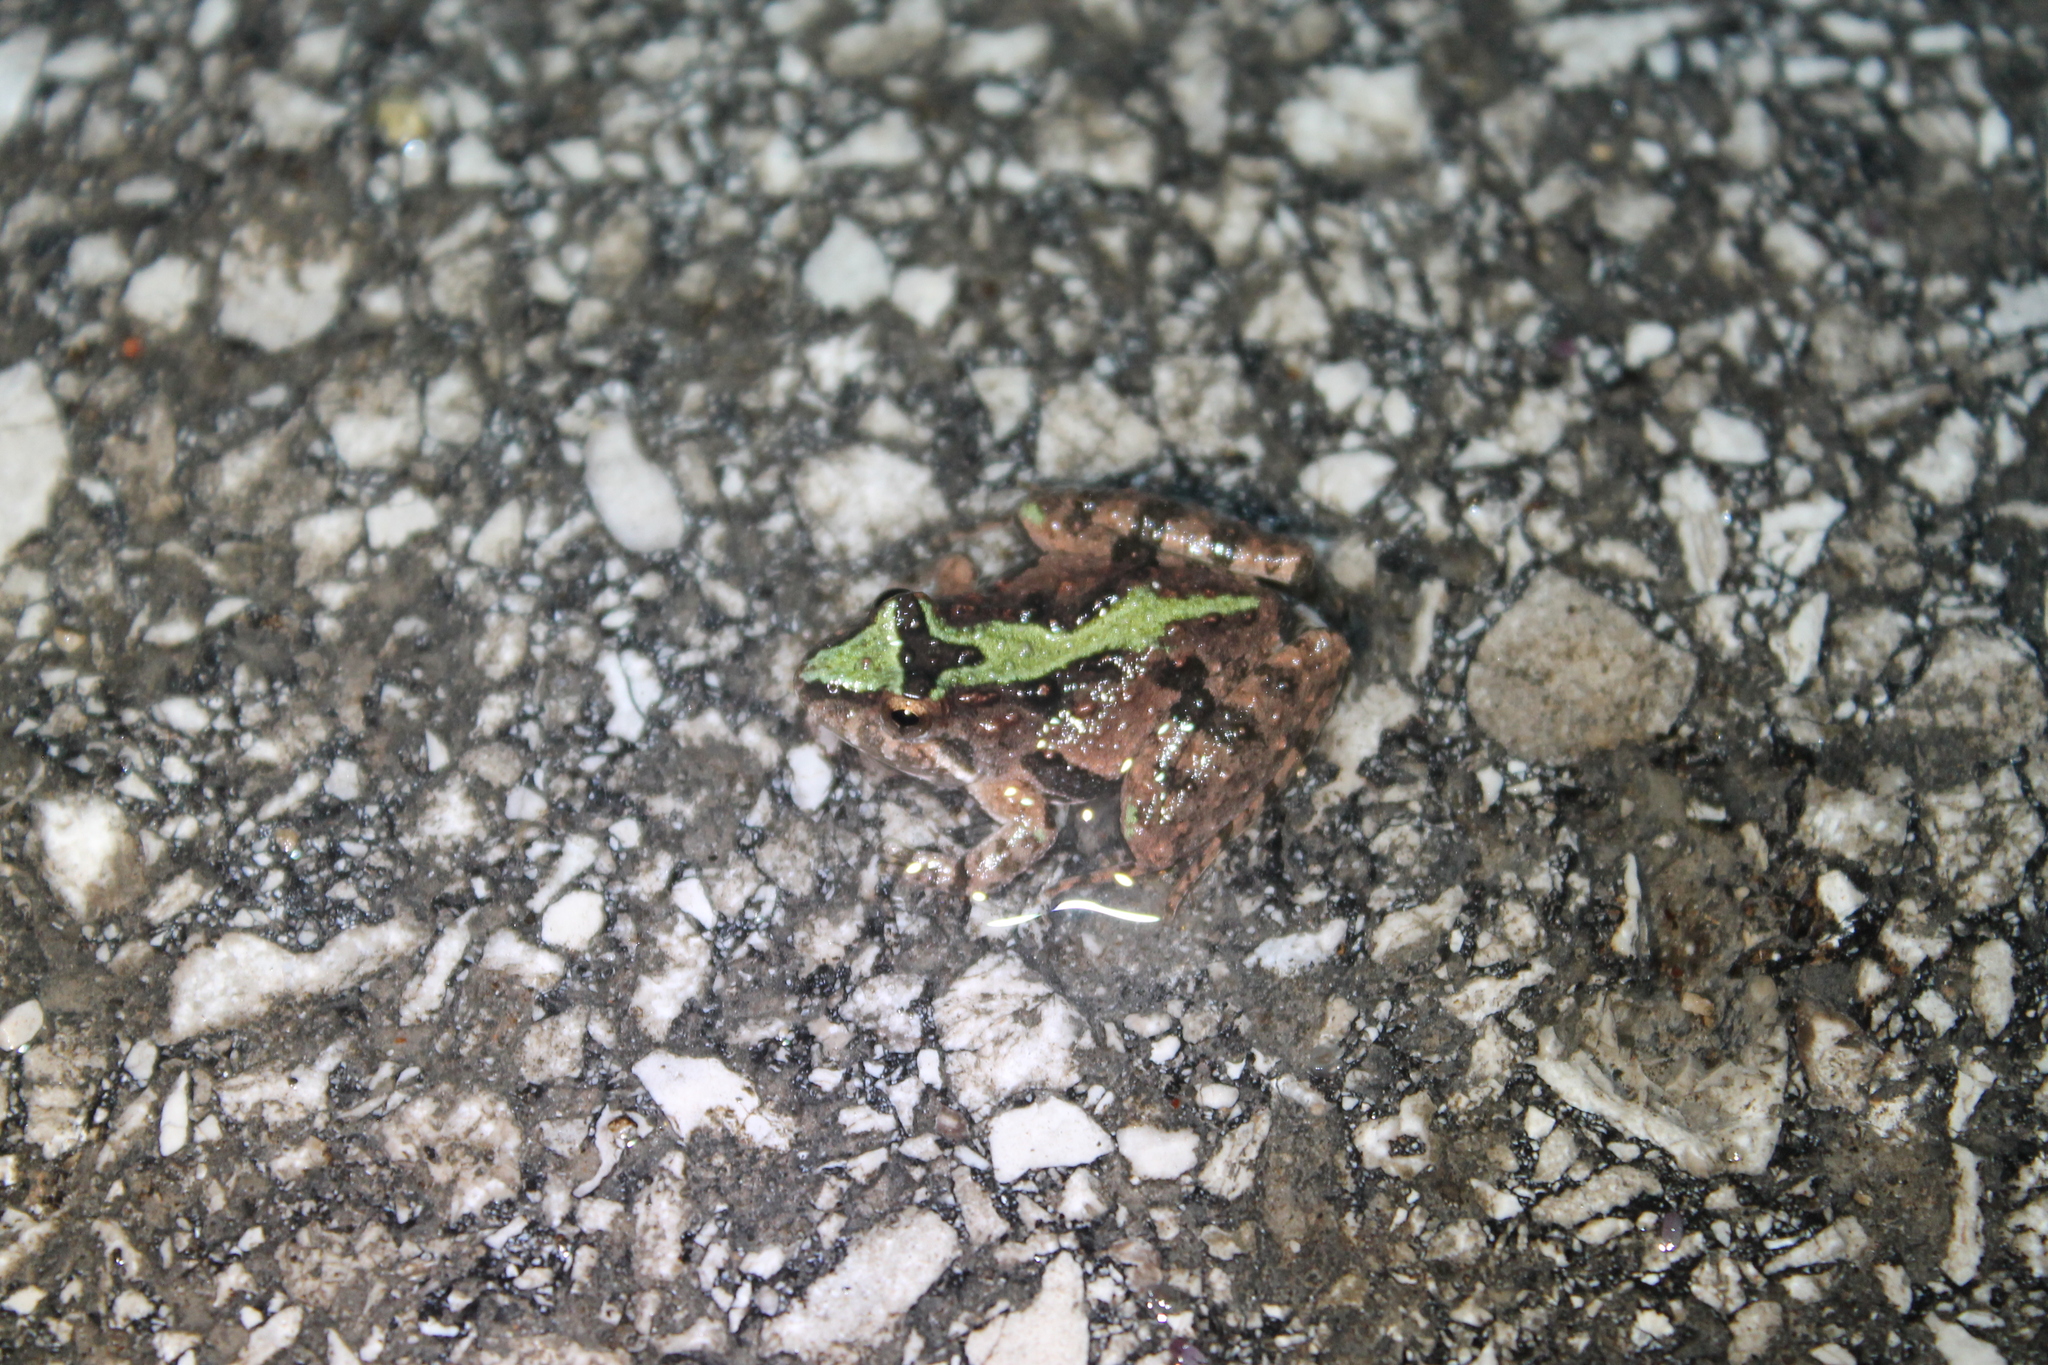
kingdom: Animalia
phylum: Chordata
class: Amphibia
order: Anura
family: Hylidae
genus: Acris
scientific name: Acris crepitans
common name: Northern cricket frog
